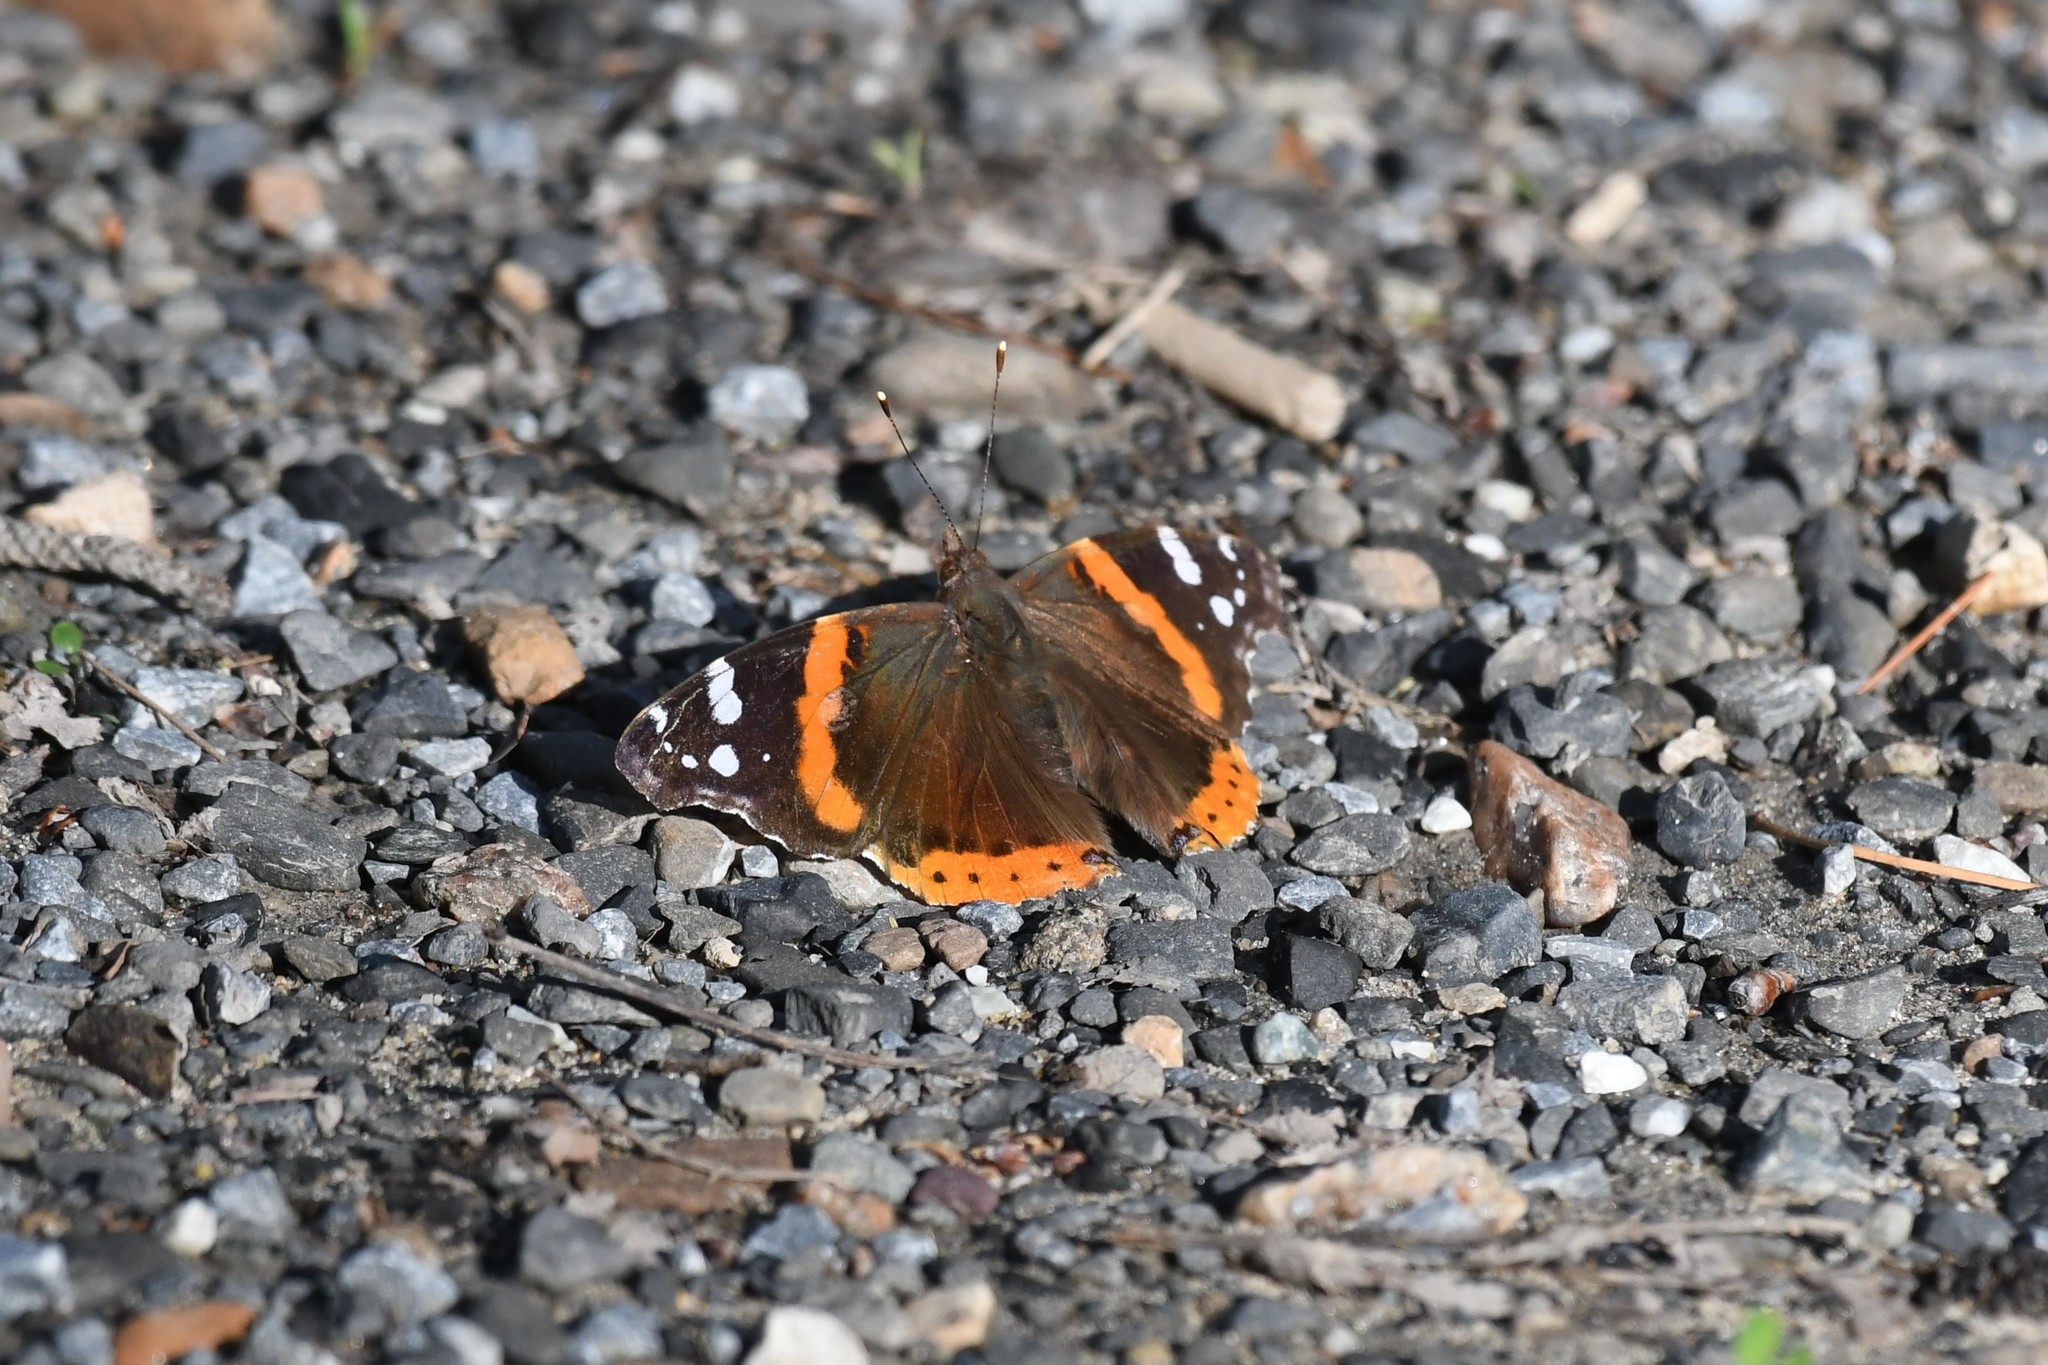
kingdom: Animalia
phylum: Arthropoda
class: Insecta
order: Lepidoptera
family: Nymphalidae
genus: Vanessa
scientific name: Vanessa atalanta
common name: Red admiral
